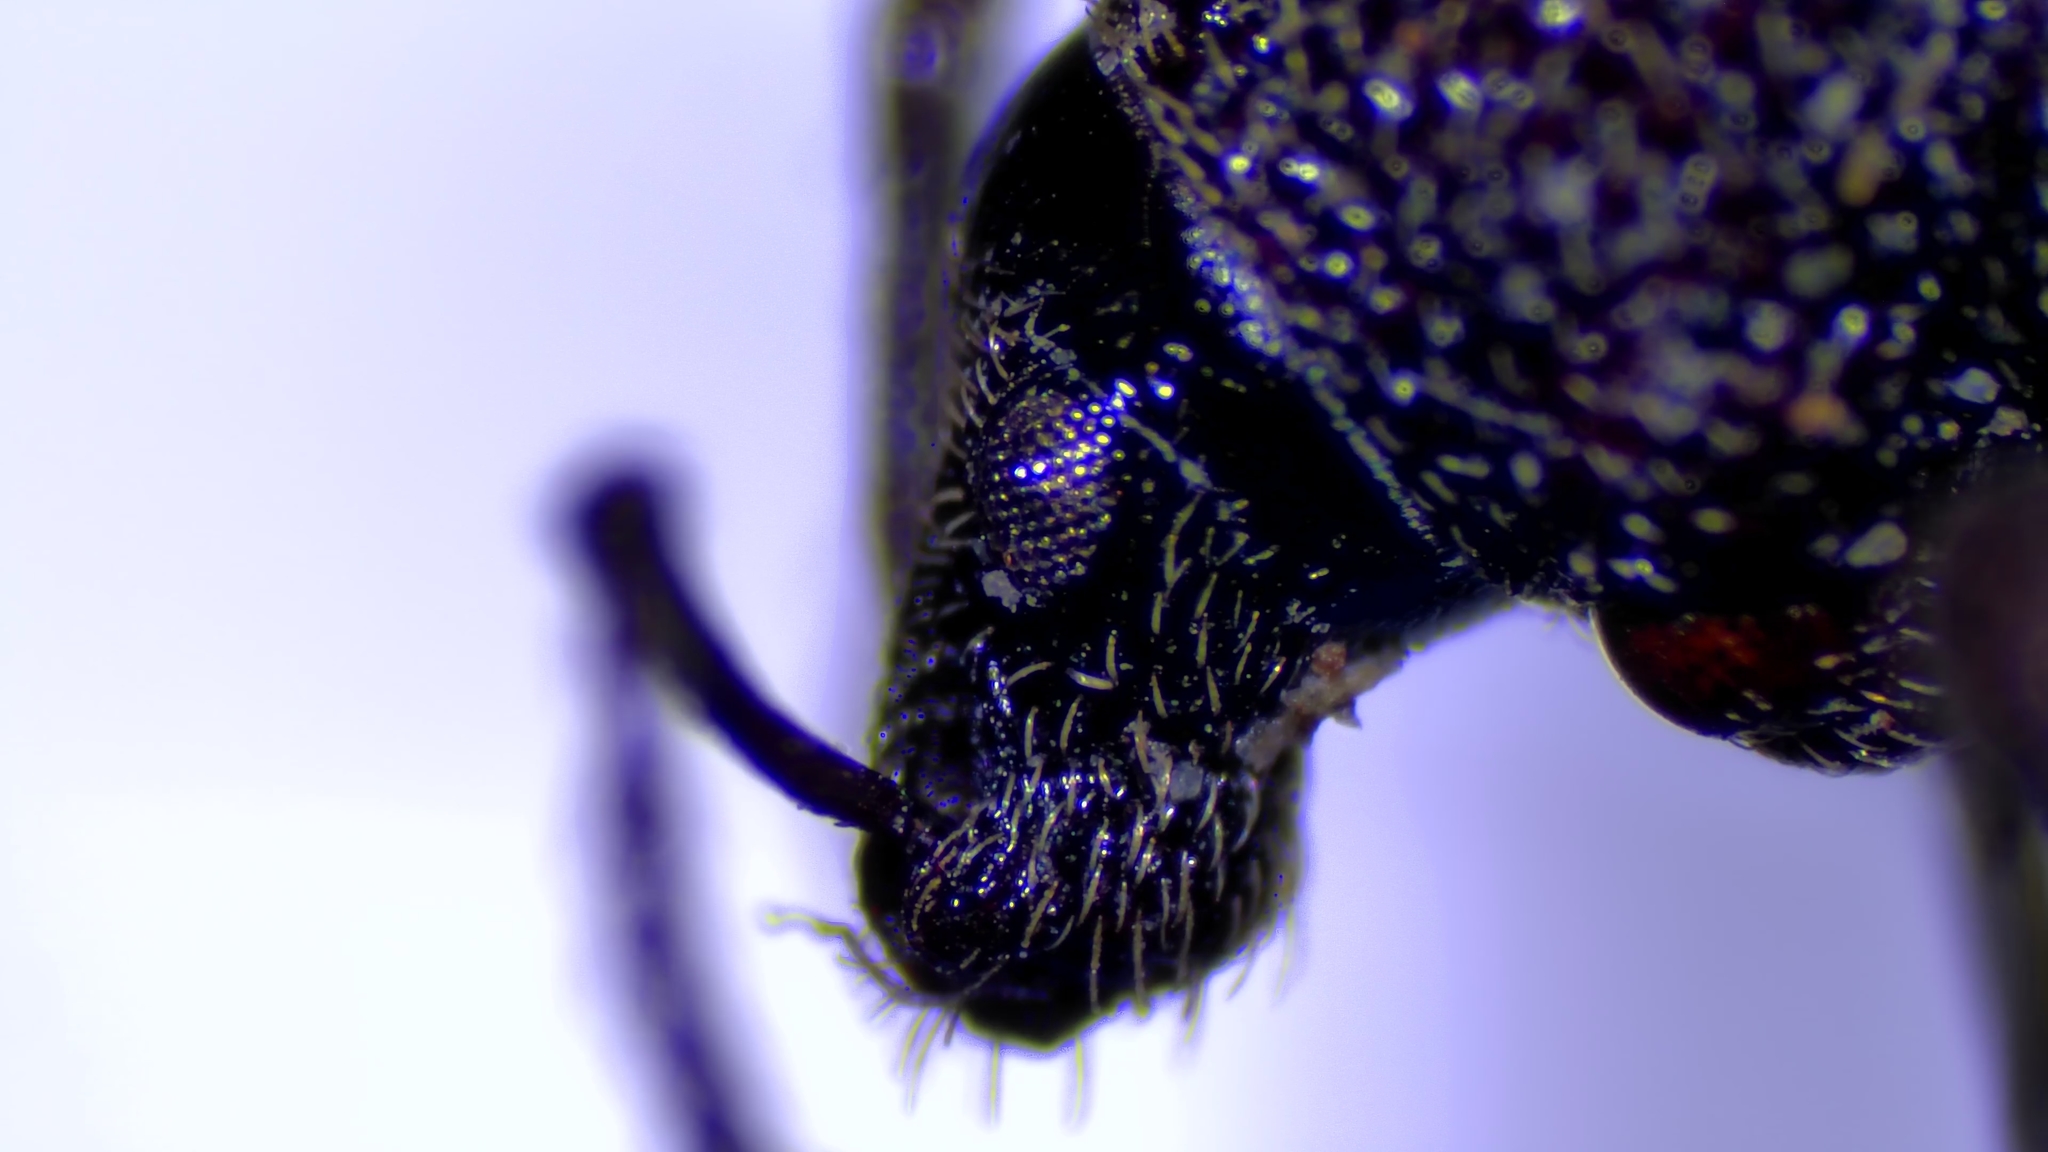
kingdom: Animalia
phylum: Arthropoda
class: Insecta
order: Coleoptera
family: Curculionidae
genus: Otiorhynchus
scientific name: Otiorhynchus ovatus
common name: Strawberry root weevil
